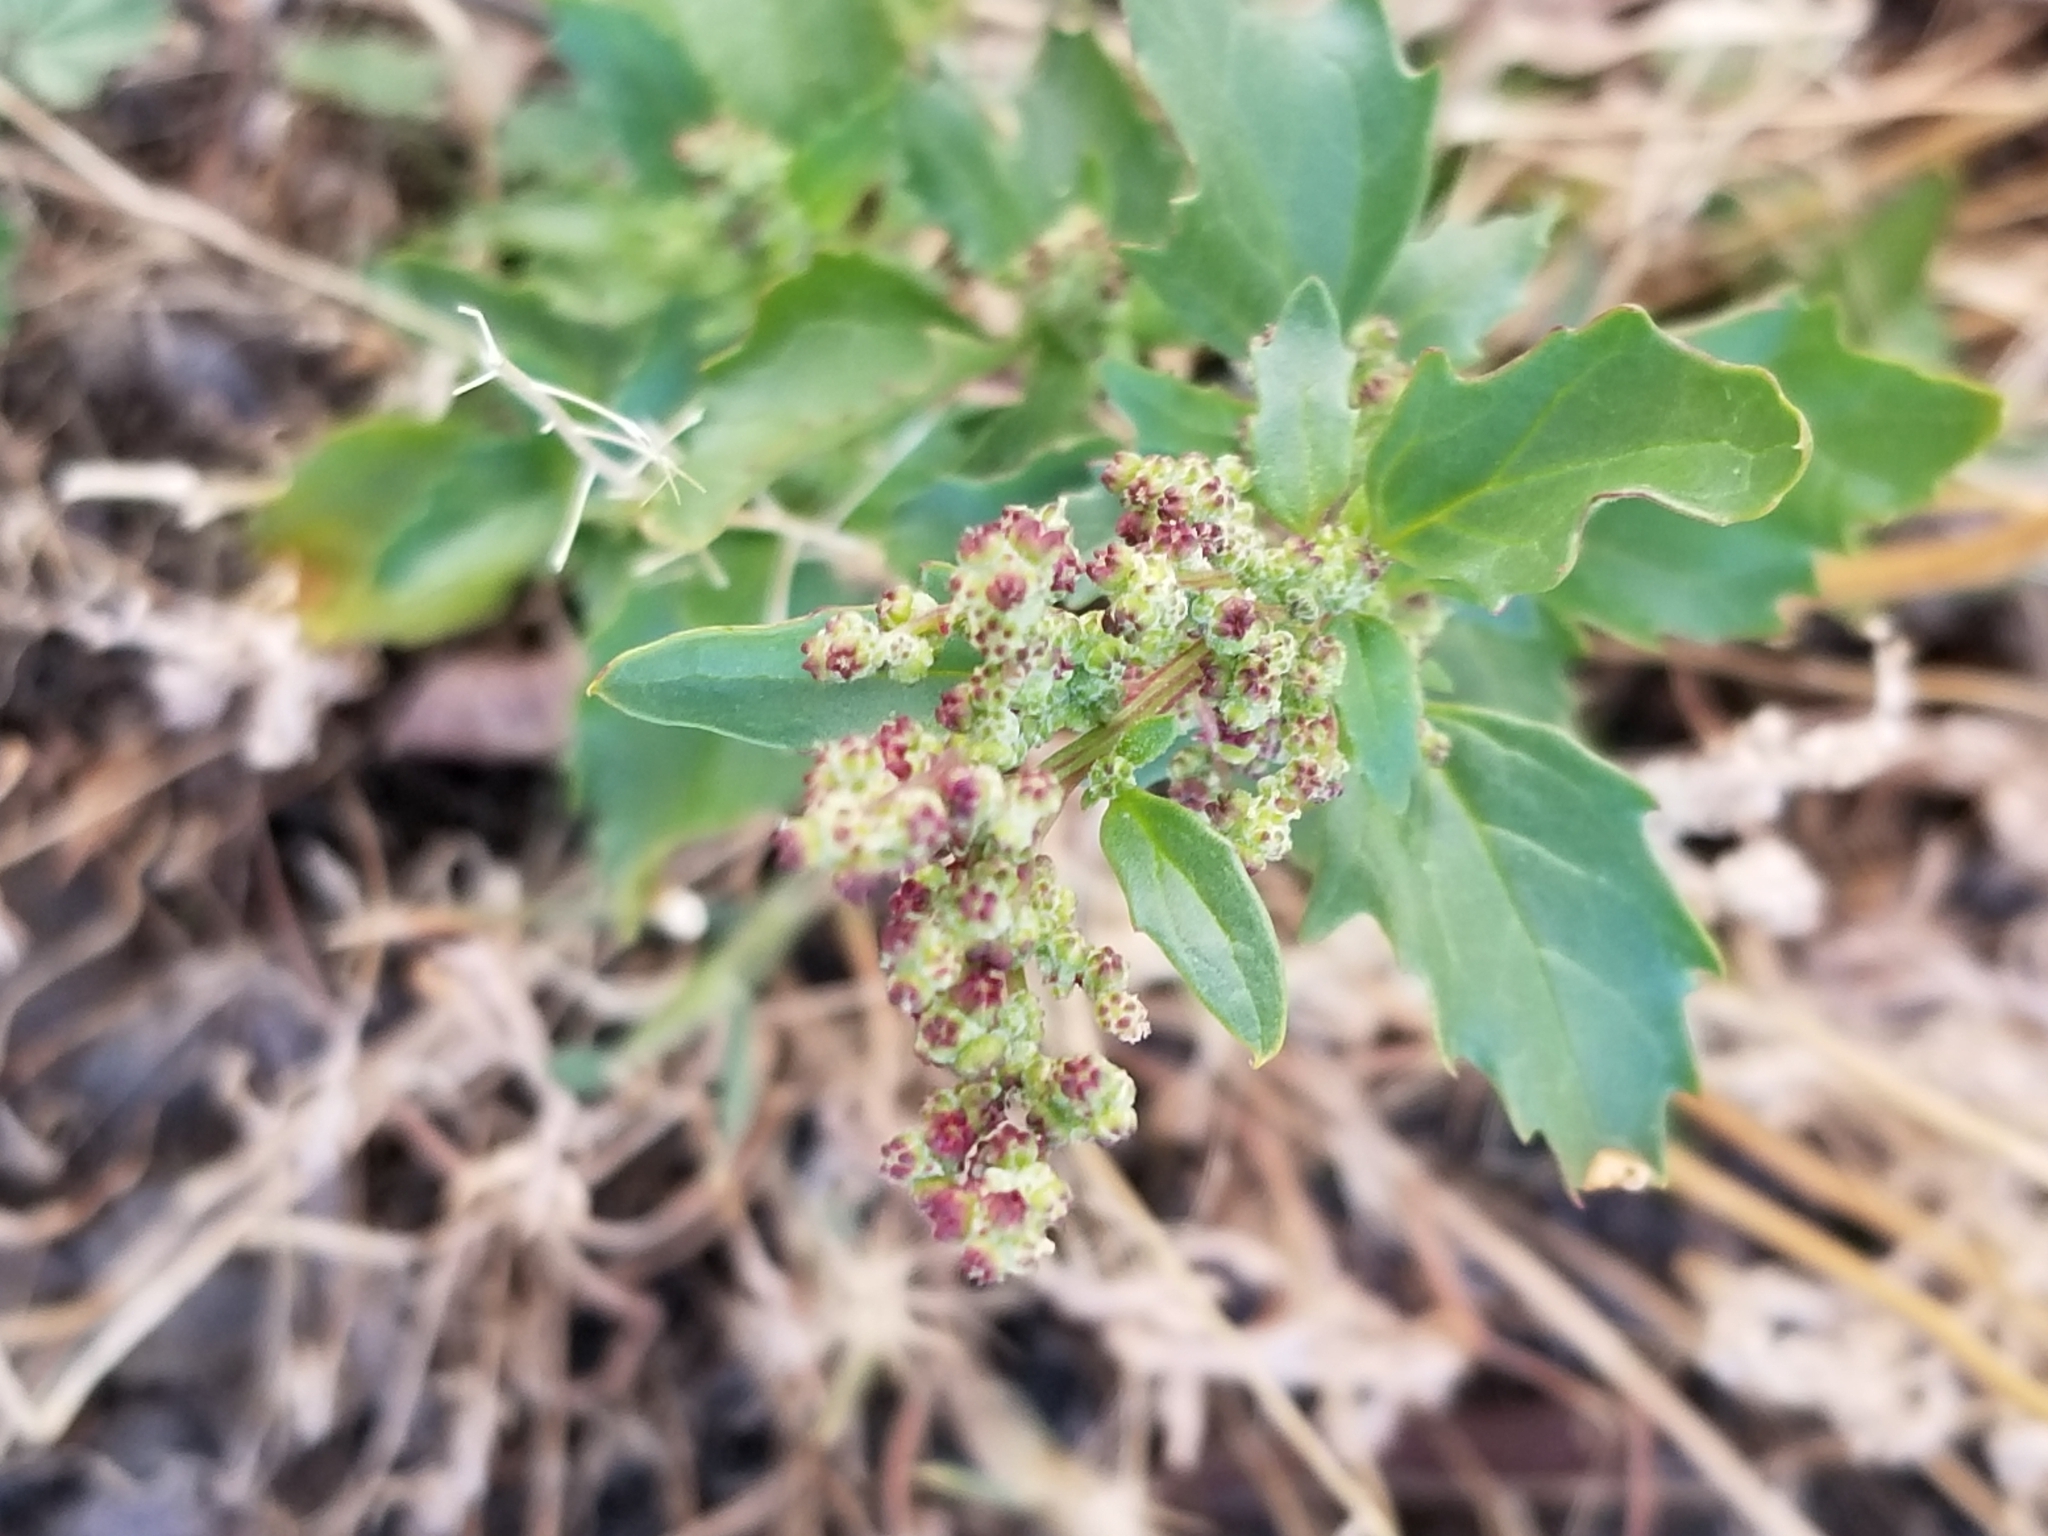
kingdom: Plantae
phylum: Tracheophyta
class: Magnoliopsida
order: Caryophyllales
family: Amaranthaceae
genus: Chenopodiastrum
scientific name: Chenopodiastrum murale
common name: Sowbane
